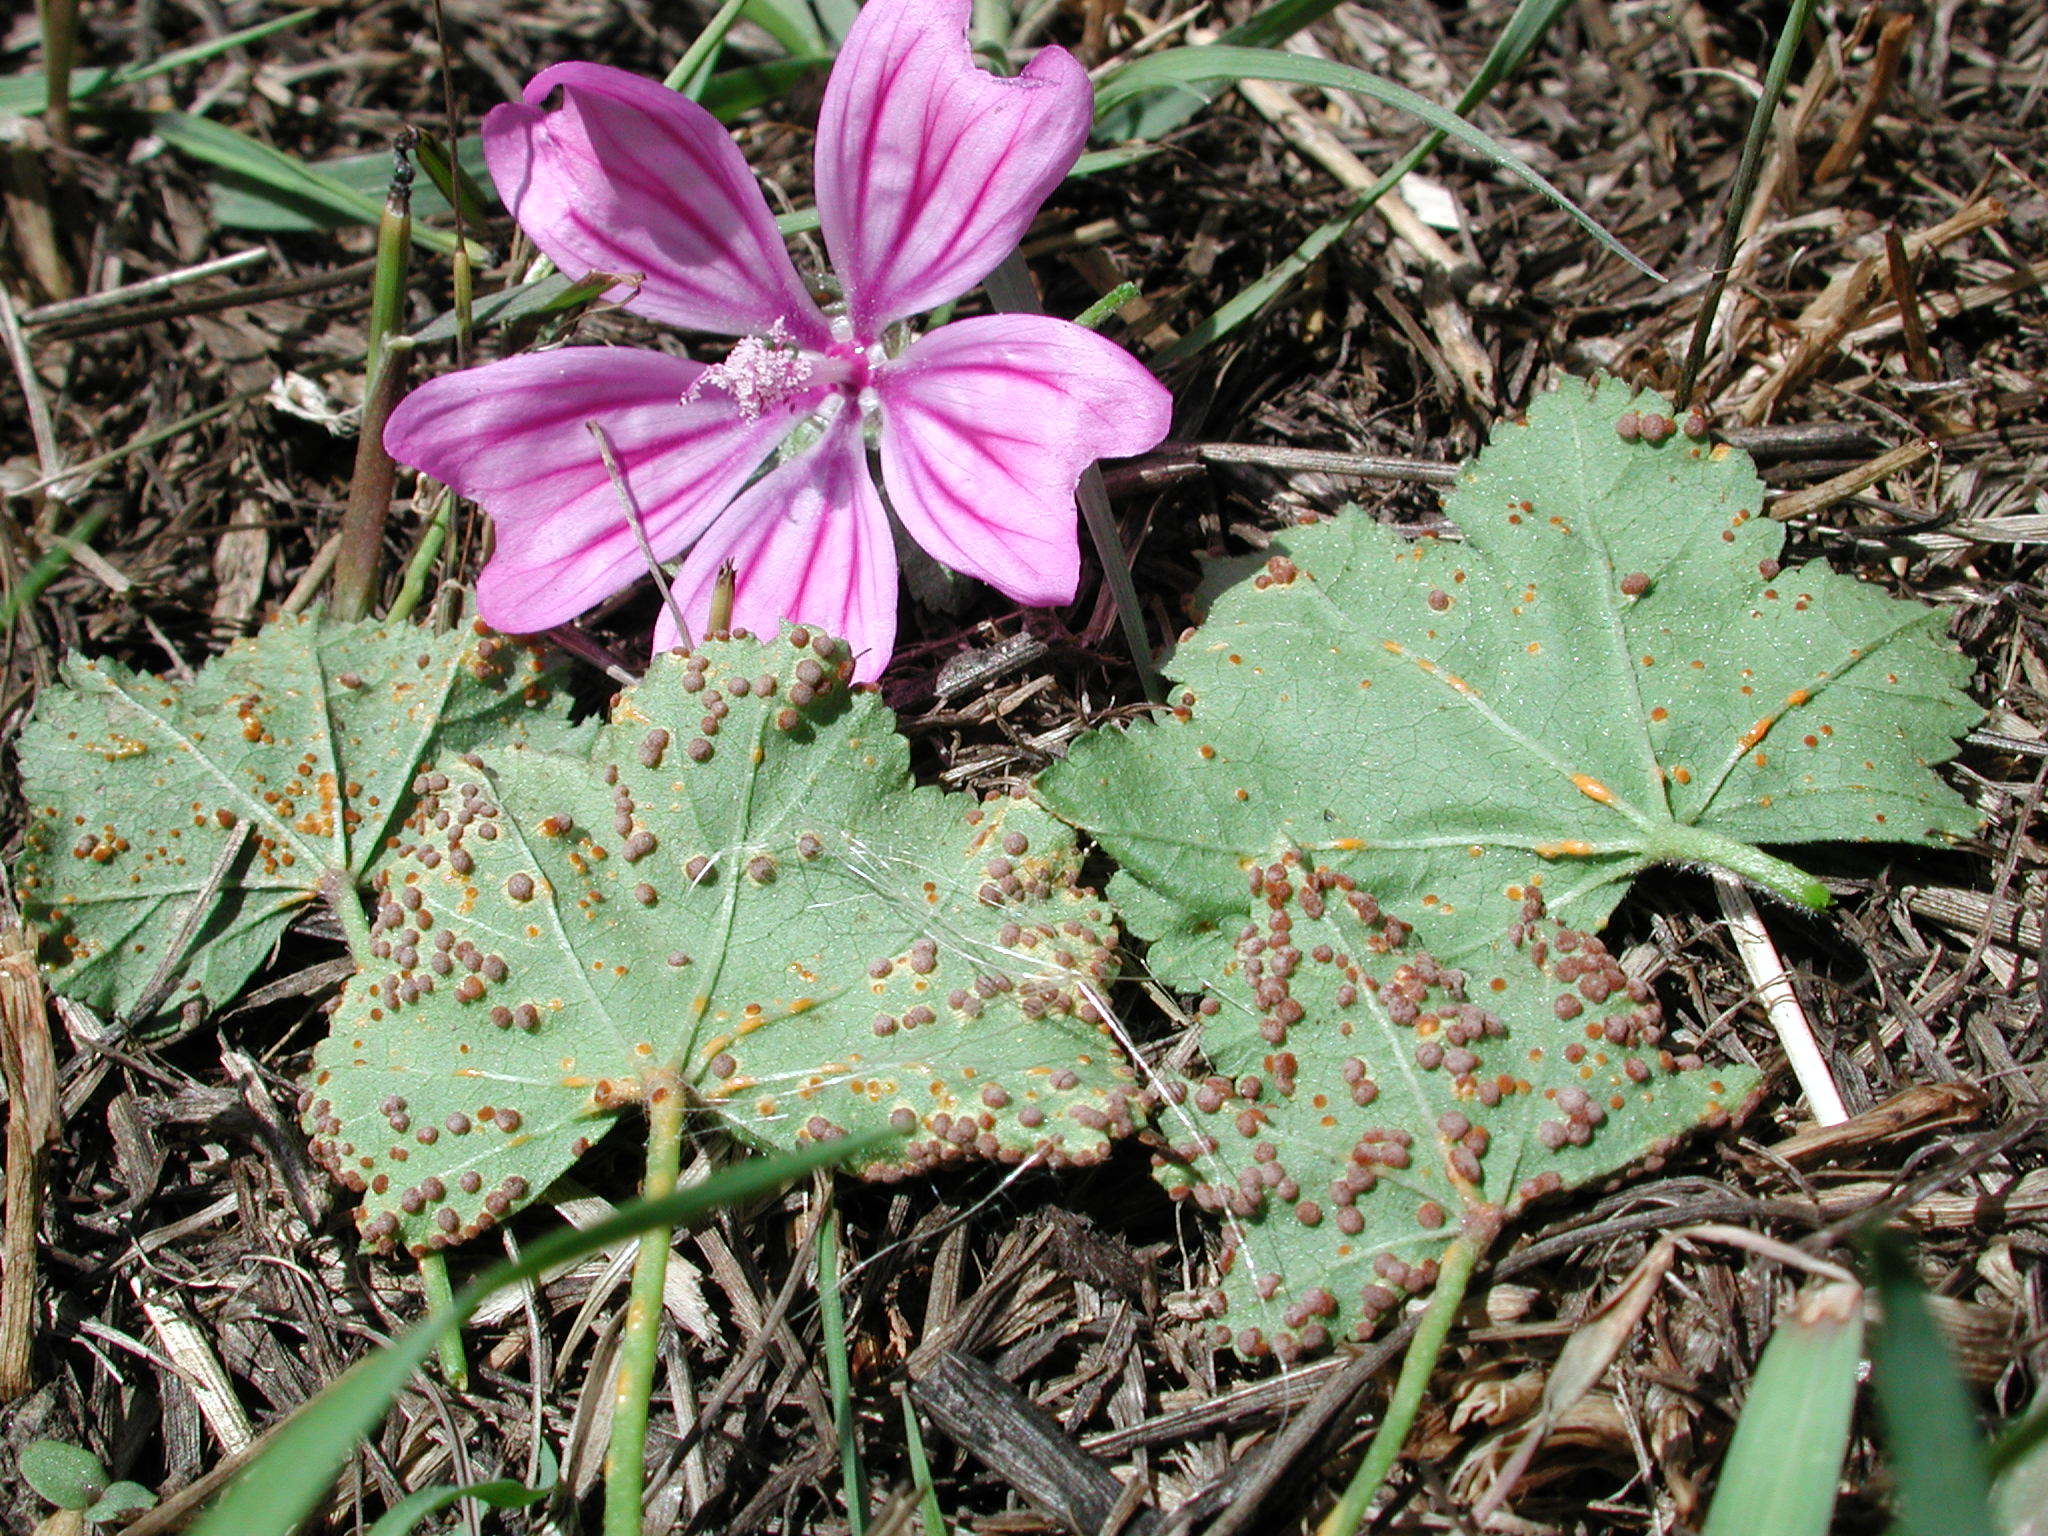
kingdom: Fungi
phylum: Basidiomycota
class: Pucciniomycetes
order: Pucciniales
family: Pucciniaceae
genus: Puccinia
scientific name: Puccinia malvacearum
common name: Hollyhock rust
